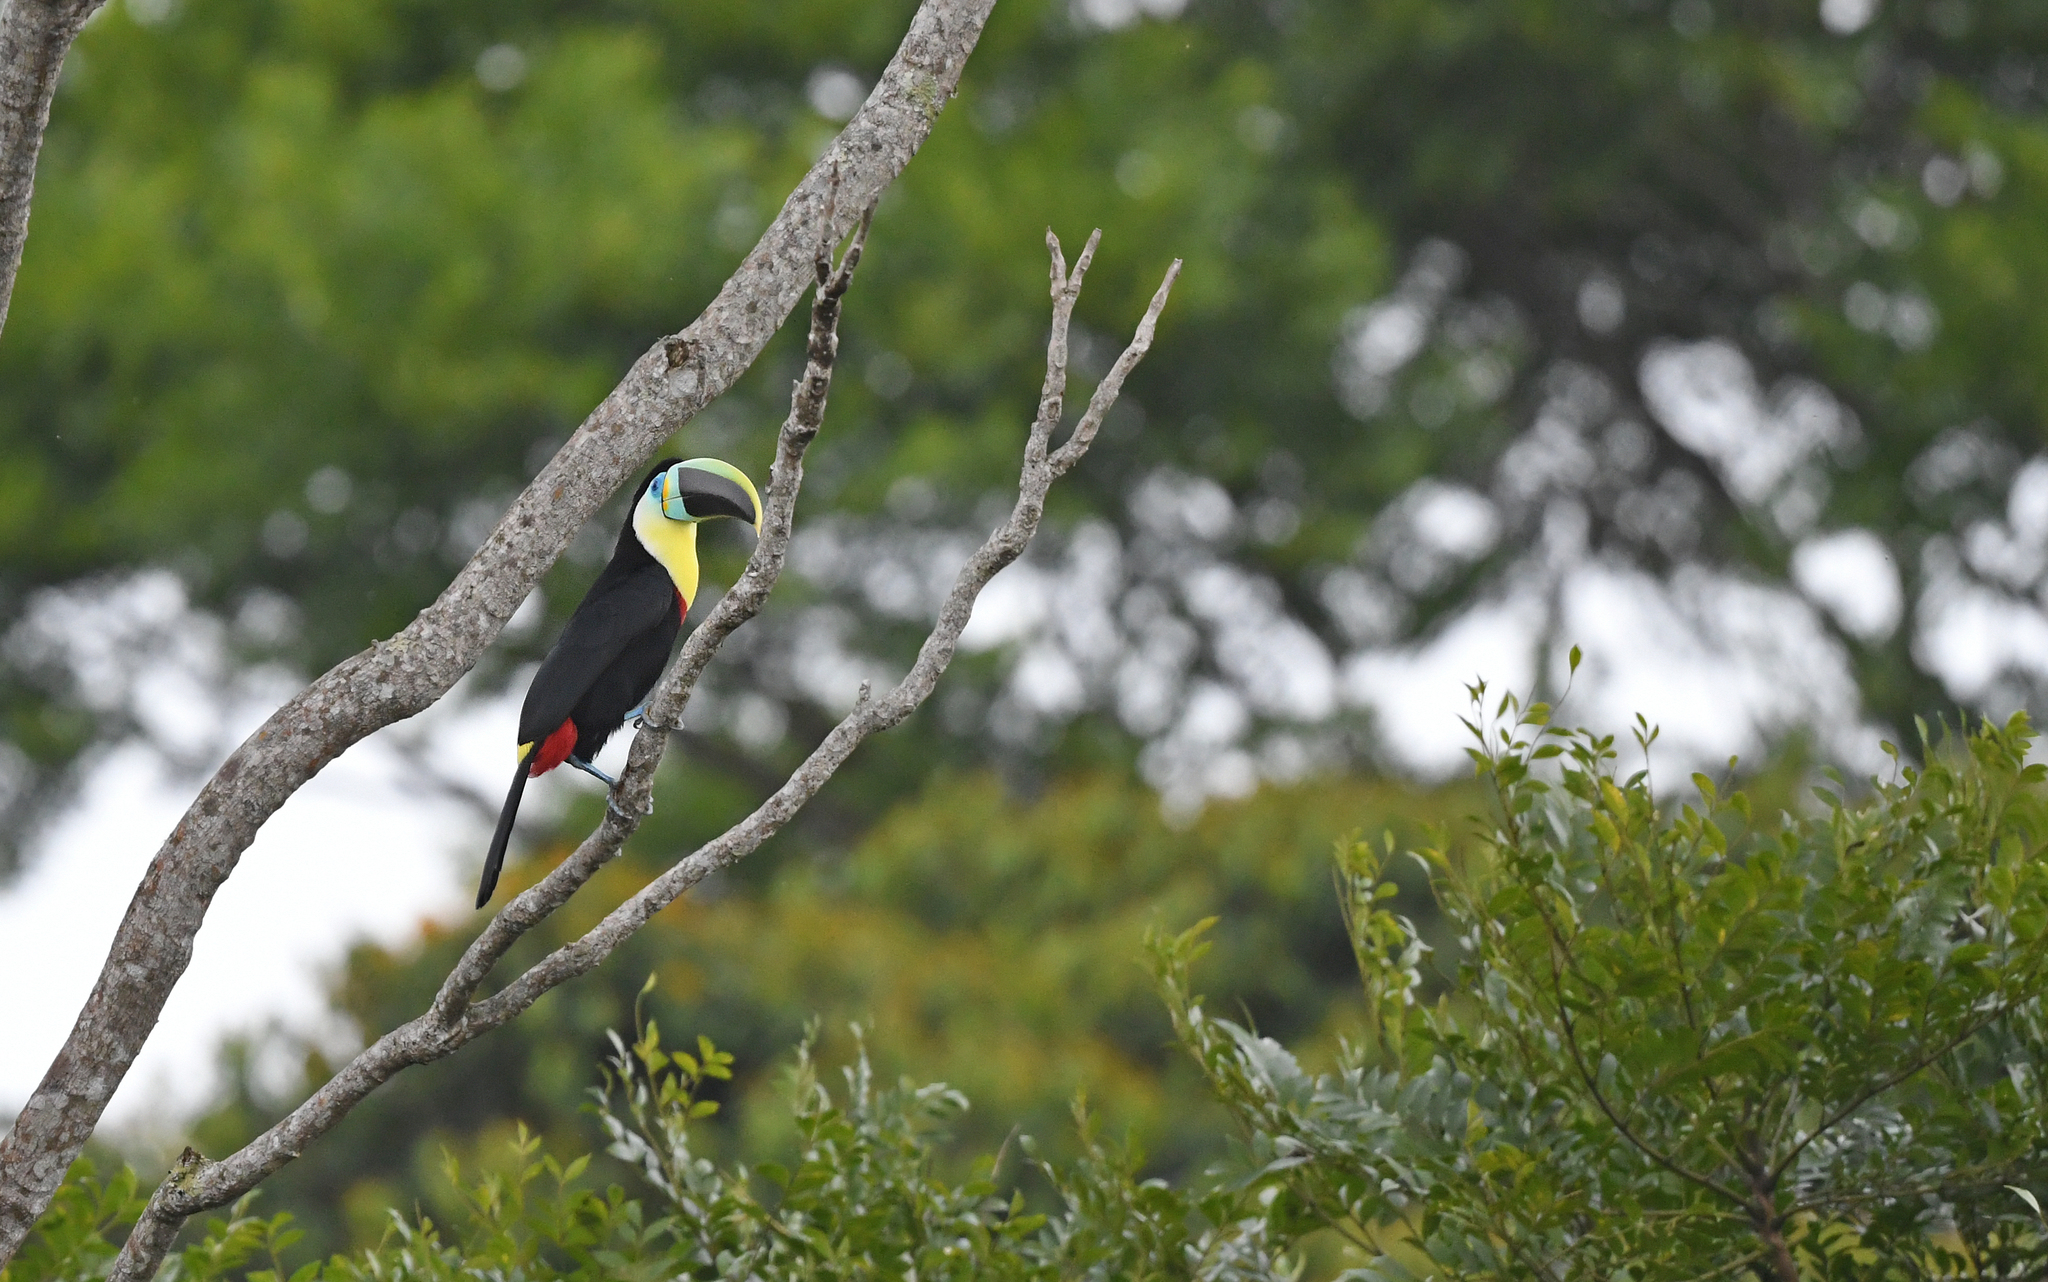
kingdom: Animalia
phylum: Chordata
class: Aves
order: Piciformes
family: Ramphastidae
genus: Ramphastos
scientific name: Ramphastos vitellinus
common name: Channel-billed toucan
